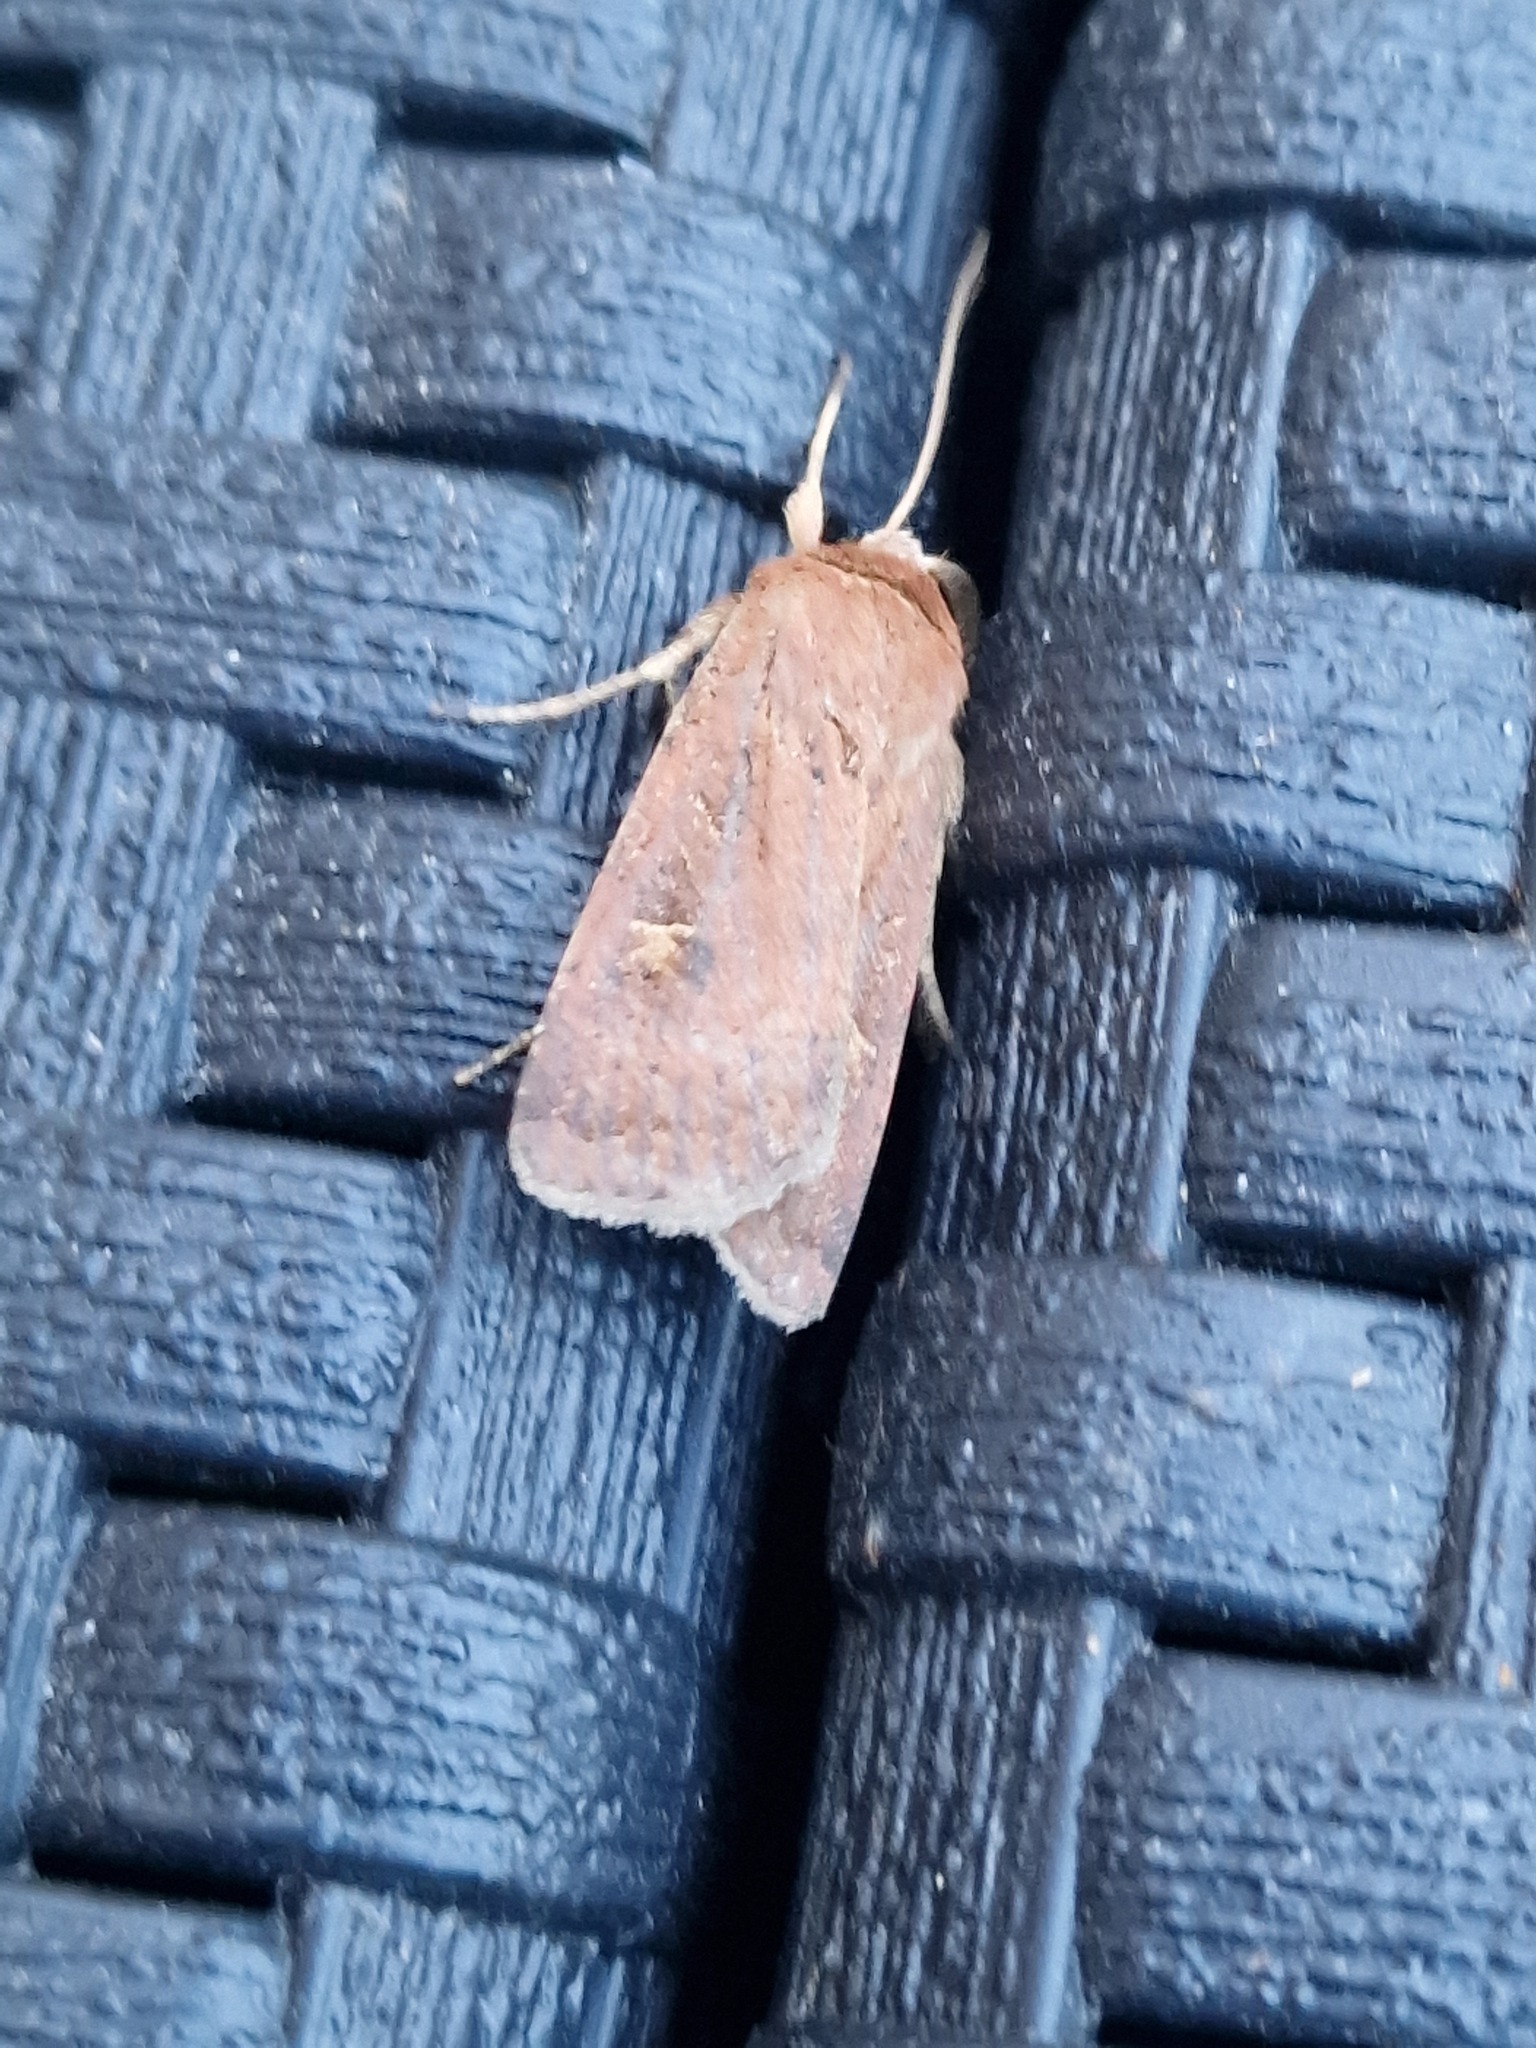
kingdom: Animalia
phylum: Arthropoda
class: Insecta
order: Lepidoptera
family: Noctuidae
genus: Xestia
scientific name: Xestia xanthographa
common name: Square-spot rustic
